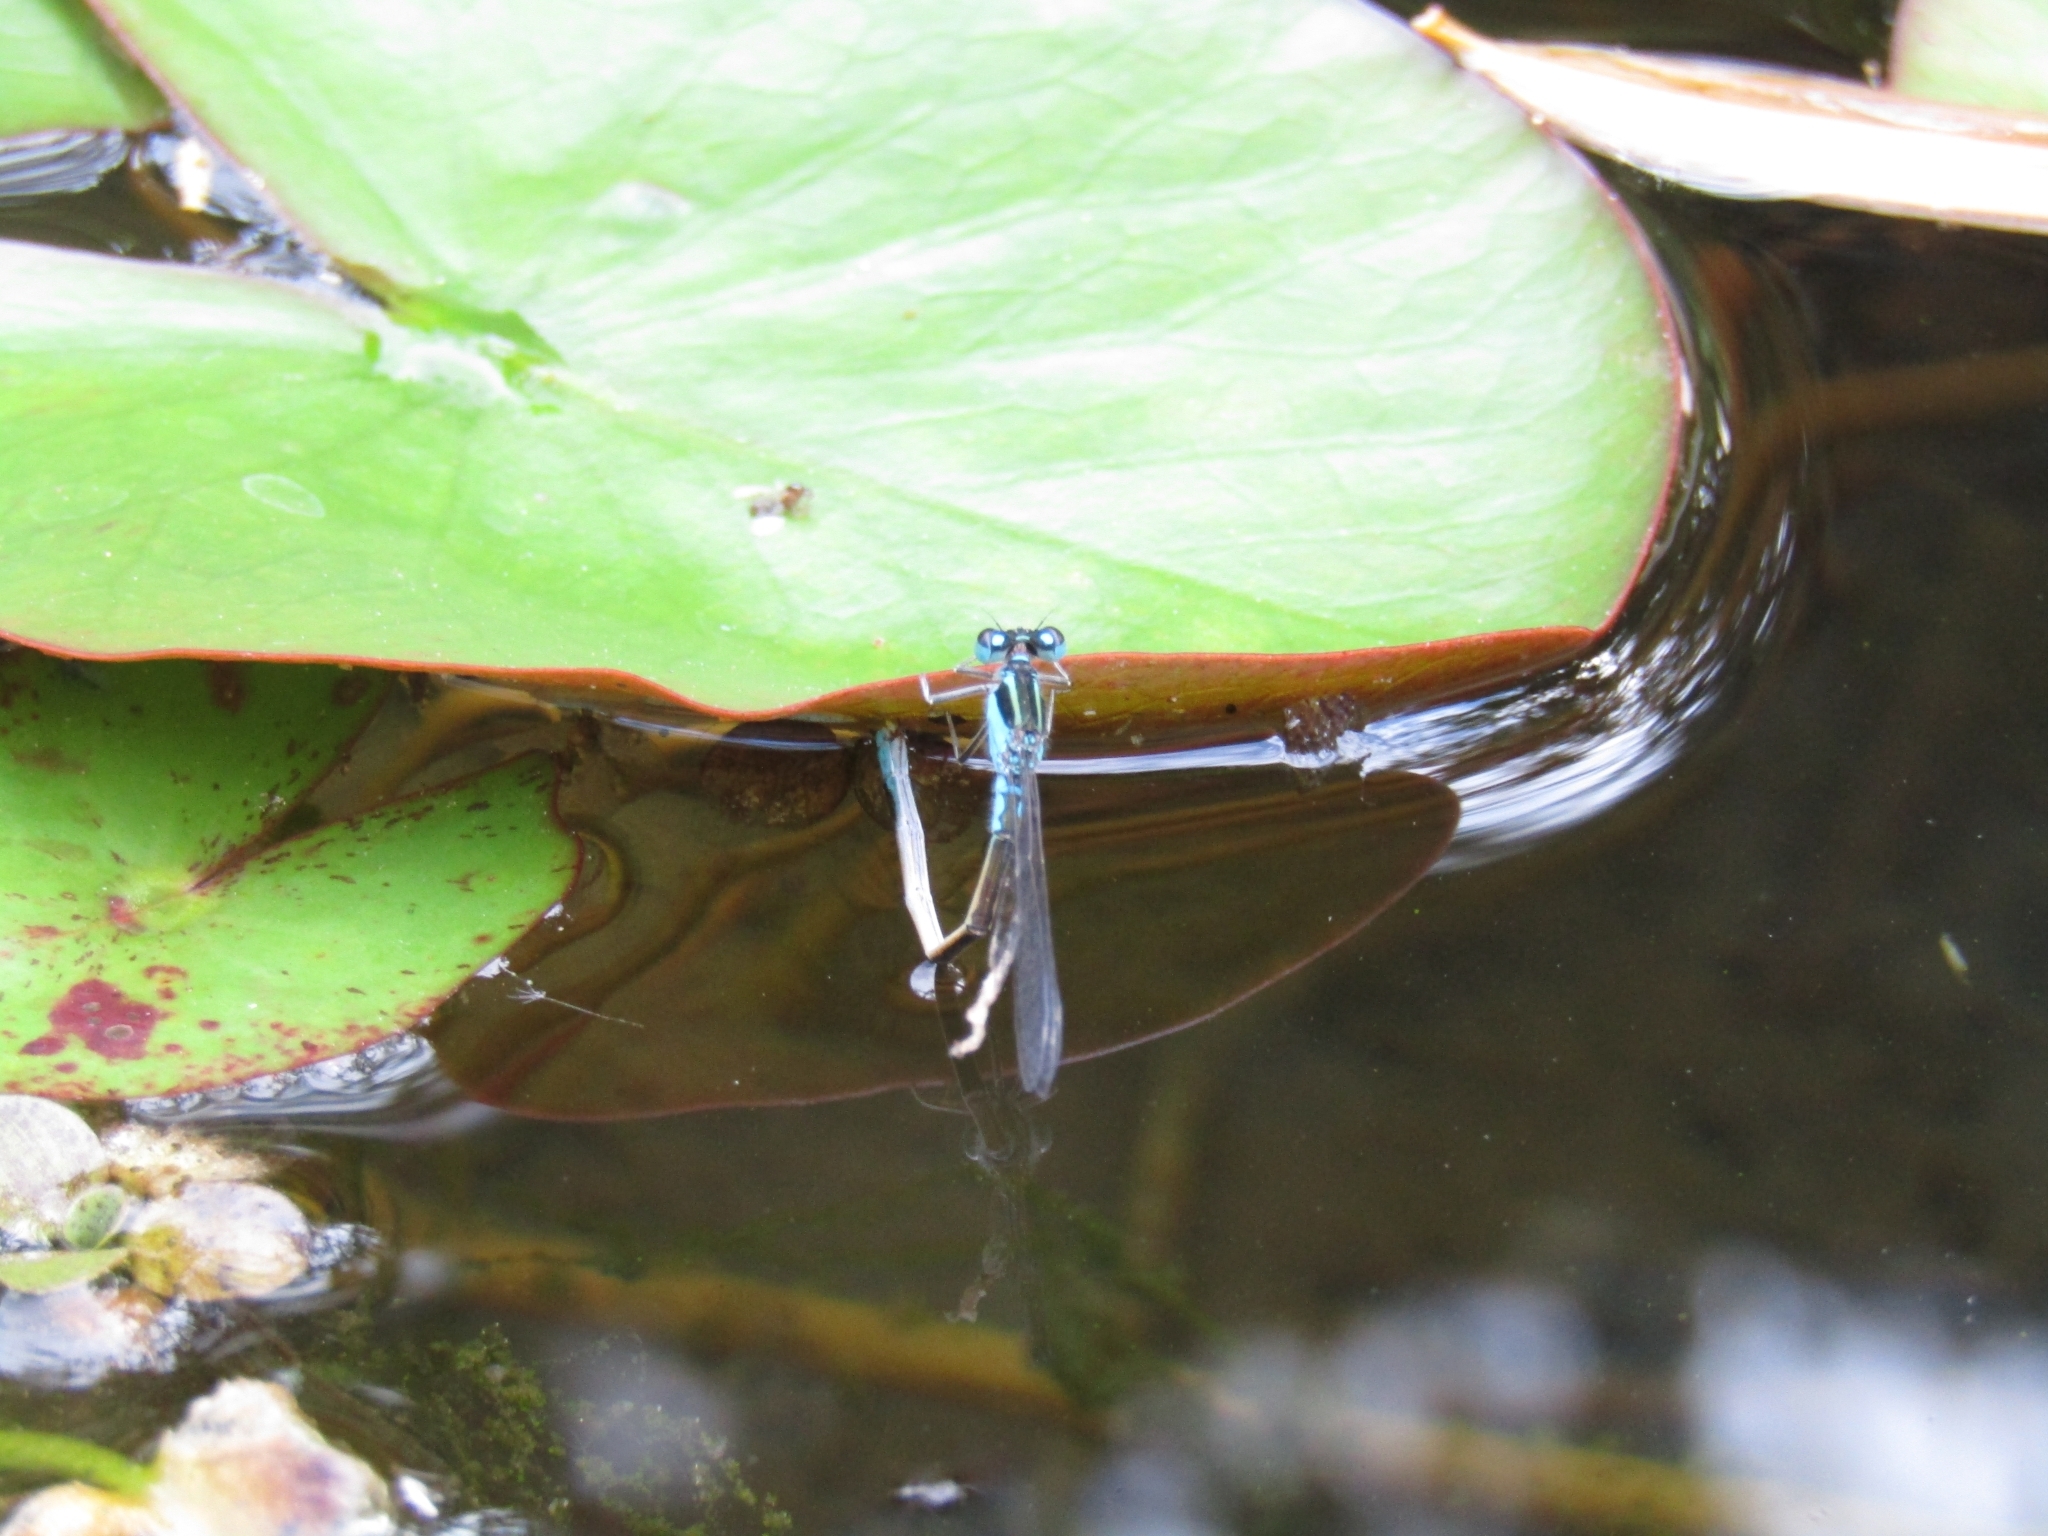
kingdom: Animalia
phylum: Arthropoda
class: Insecta
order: Odonata
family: Coenagrionidae
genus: Ischnura
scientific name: Ischnura fluviatilis
